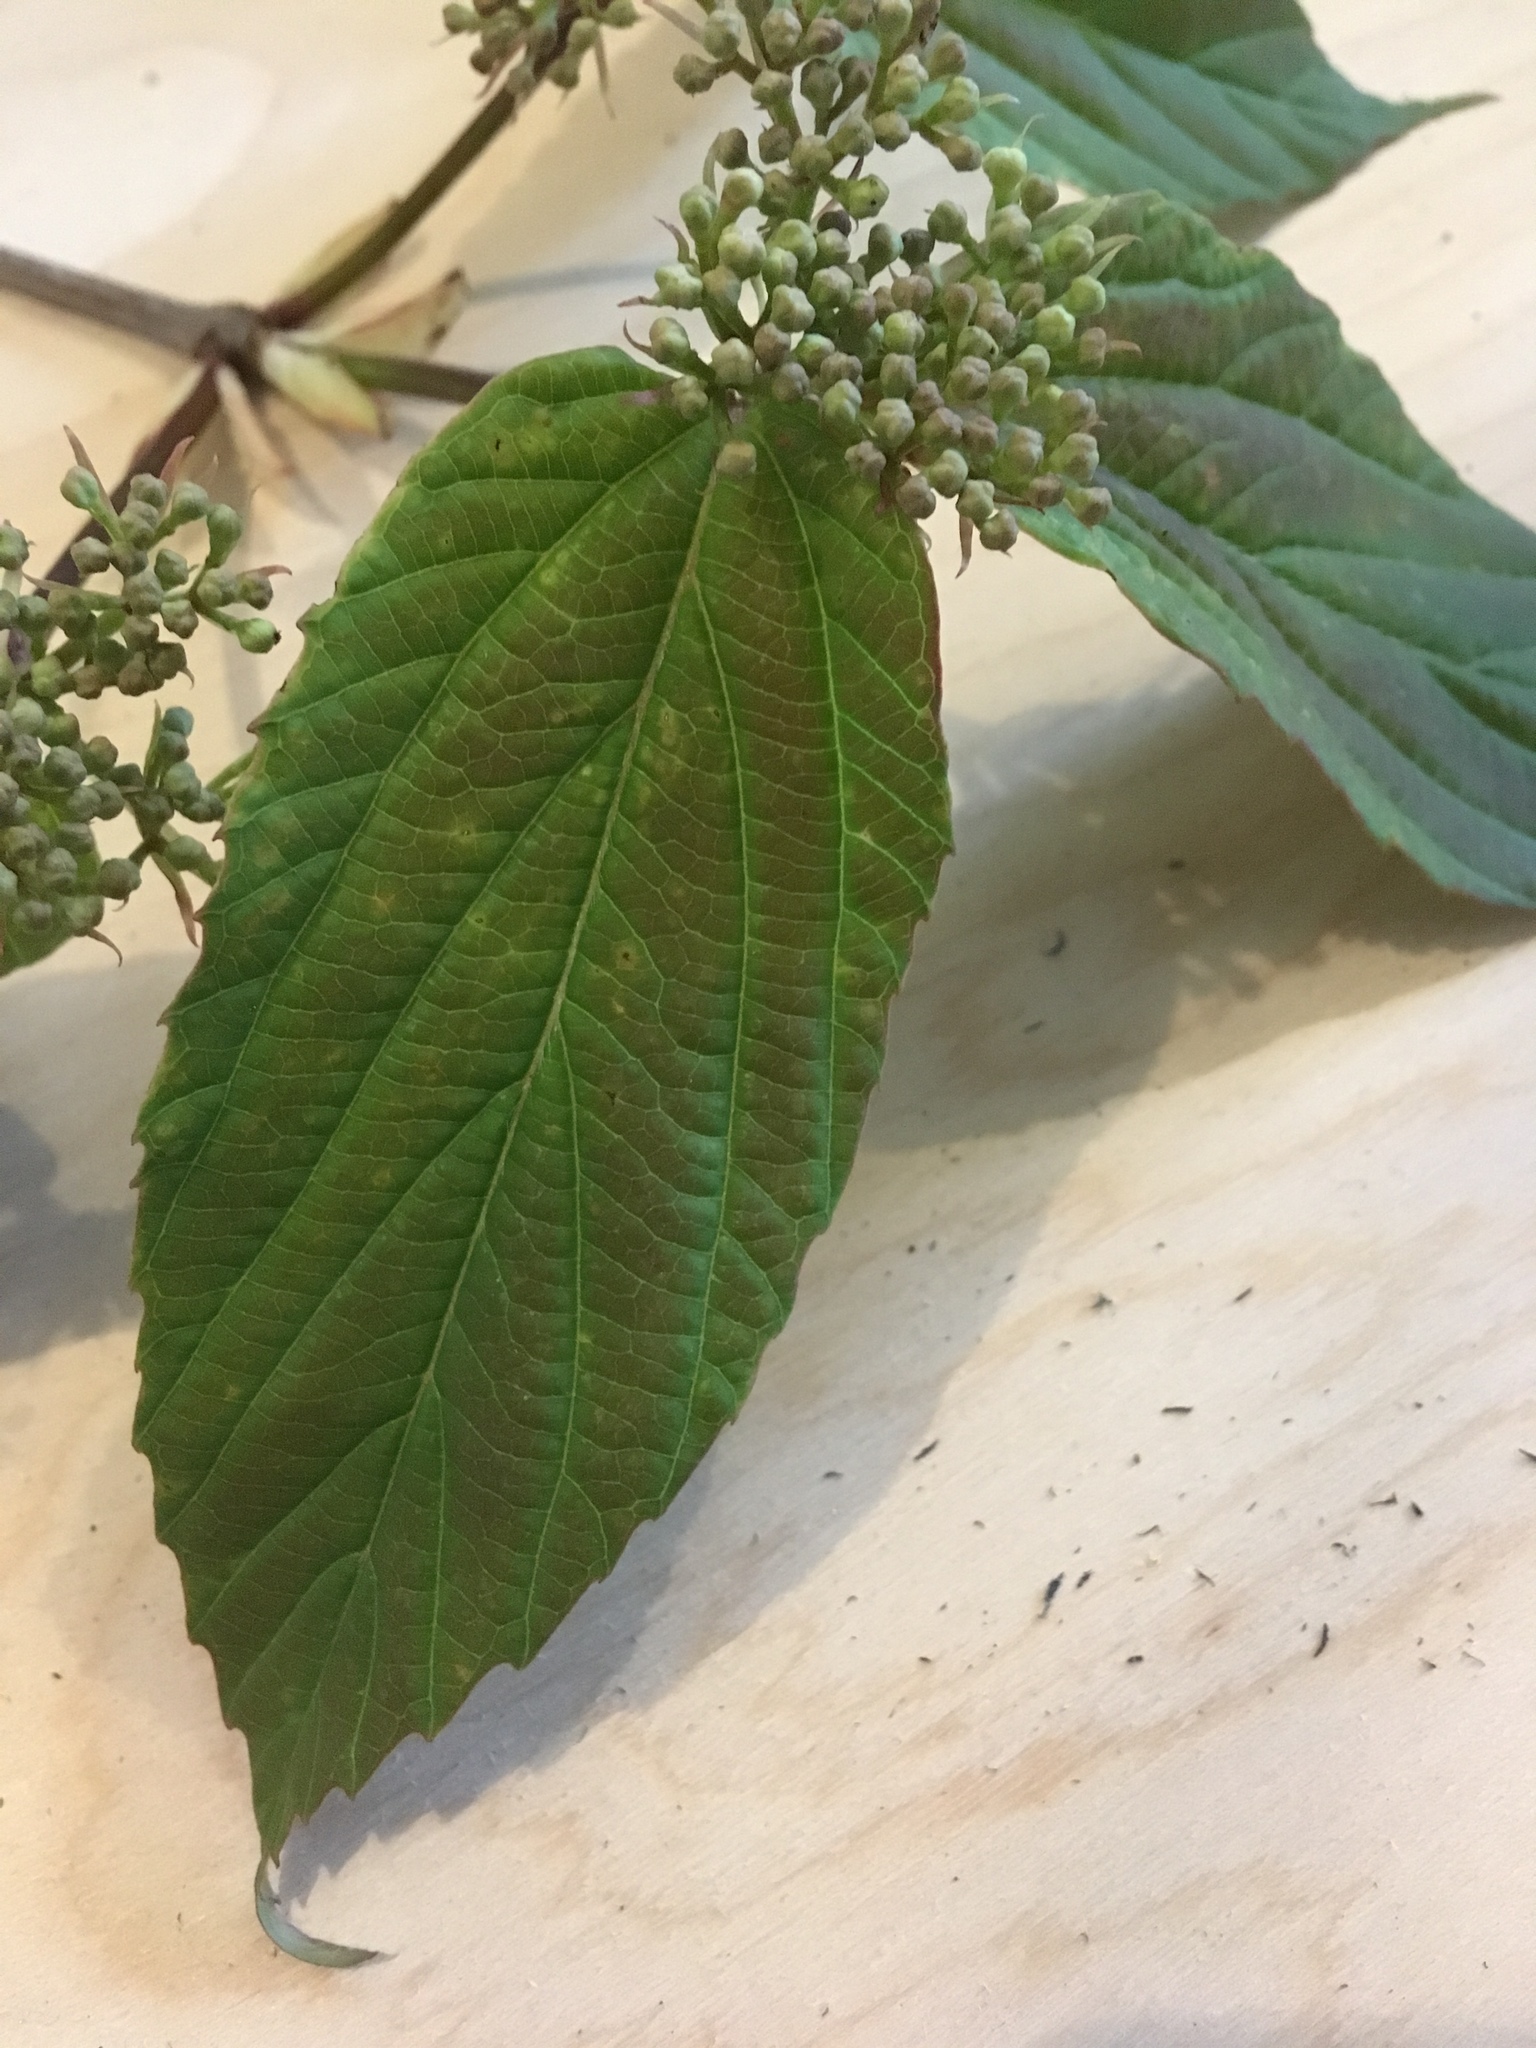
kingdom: Plantae
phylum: Tracheophyta
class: Magnoliopsida
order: Dipsacales
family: Viburnaceae
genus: Viburnum
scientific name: Viburnum setigerum
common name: Tea viburnum
